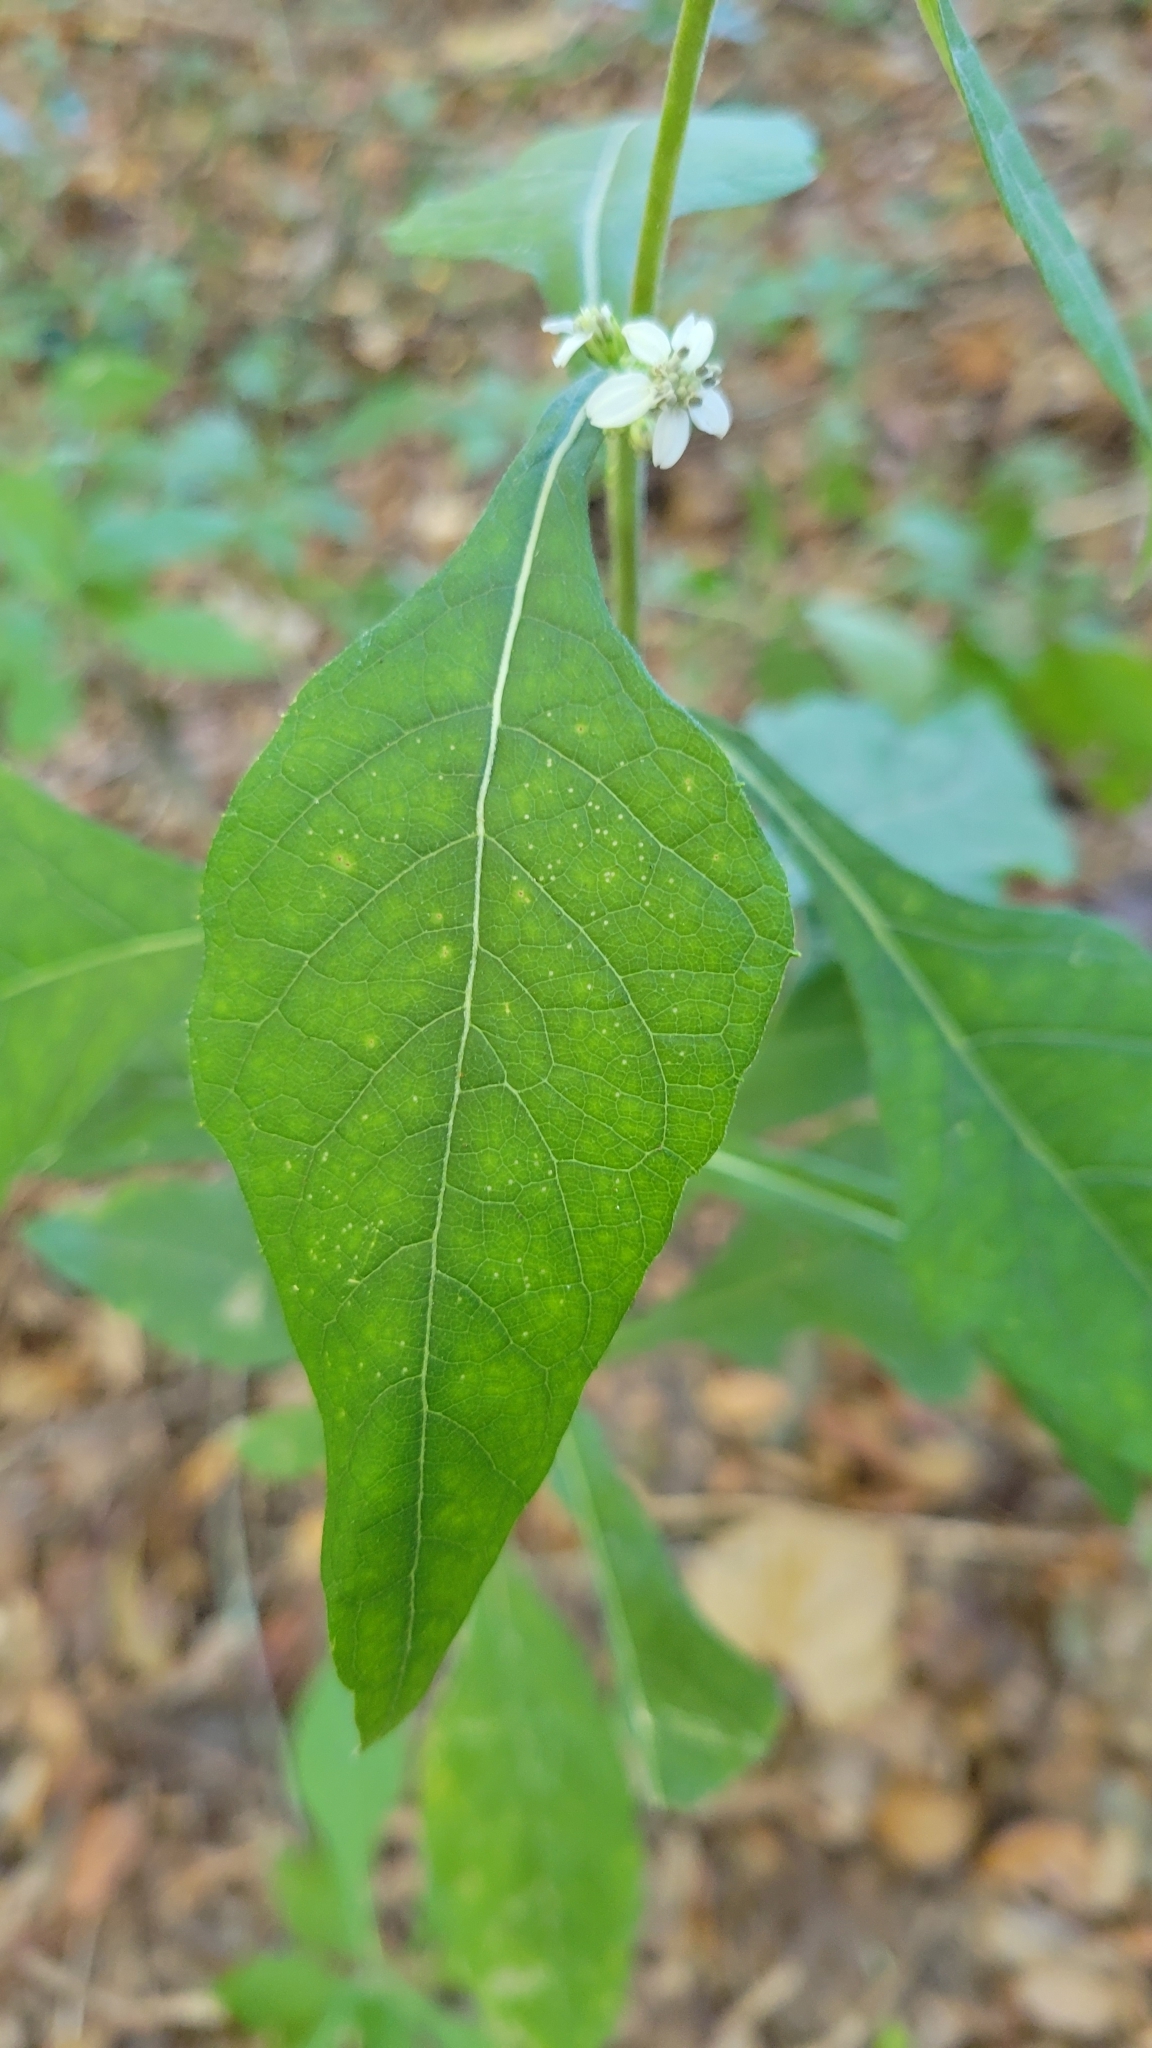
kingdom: Plantae
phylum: Tracheophyta
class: Magnoliopsida
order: Asterales
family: Asteraceae
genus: Verbesina
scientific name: Verbesina virginica
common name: Frostweed
